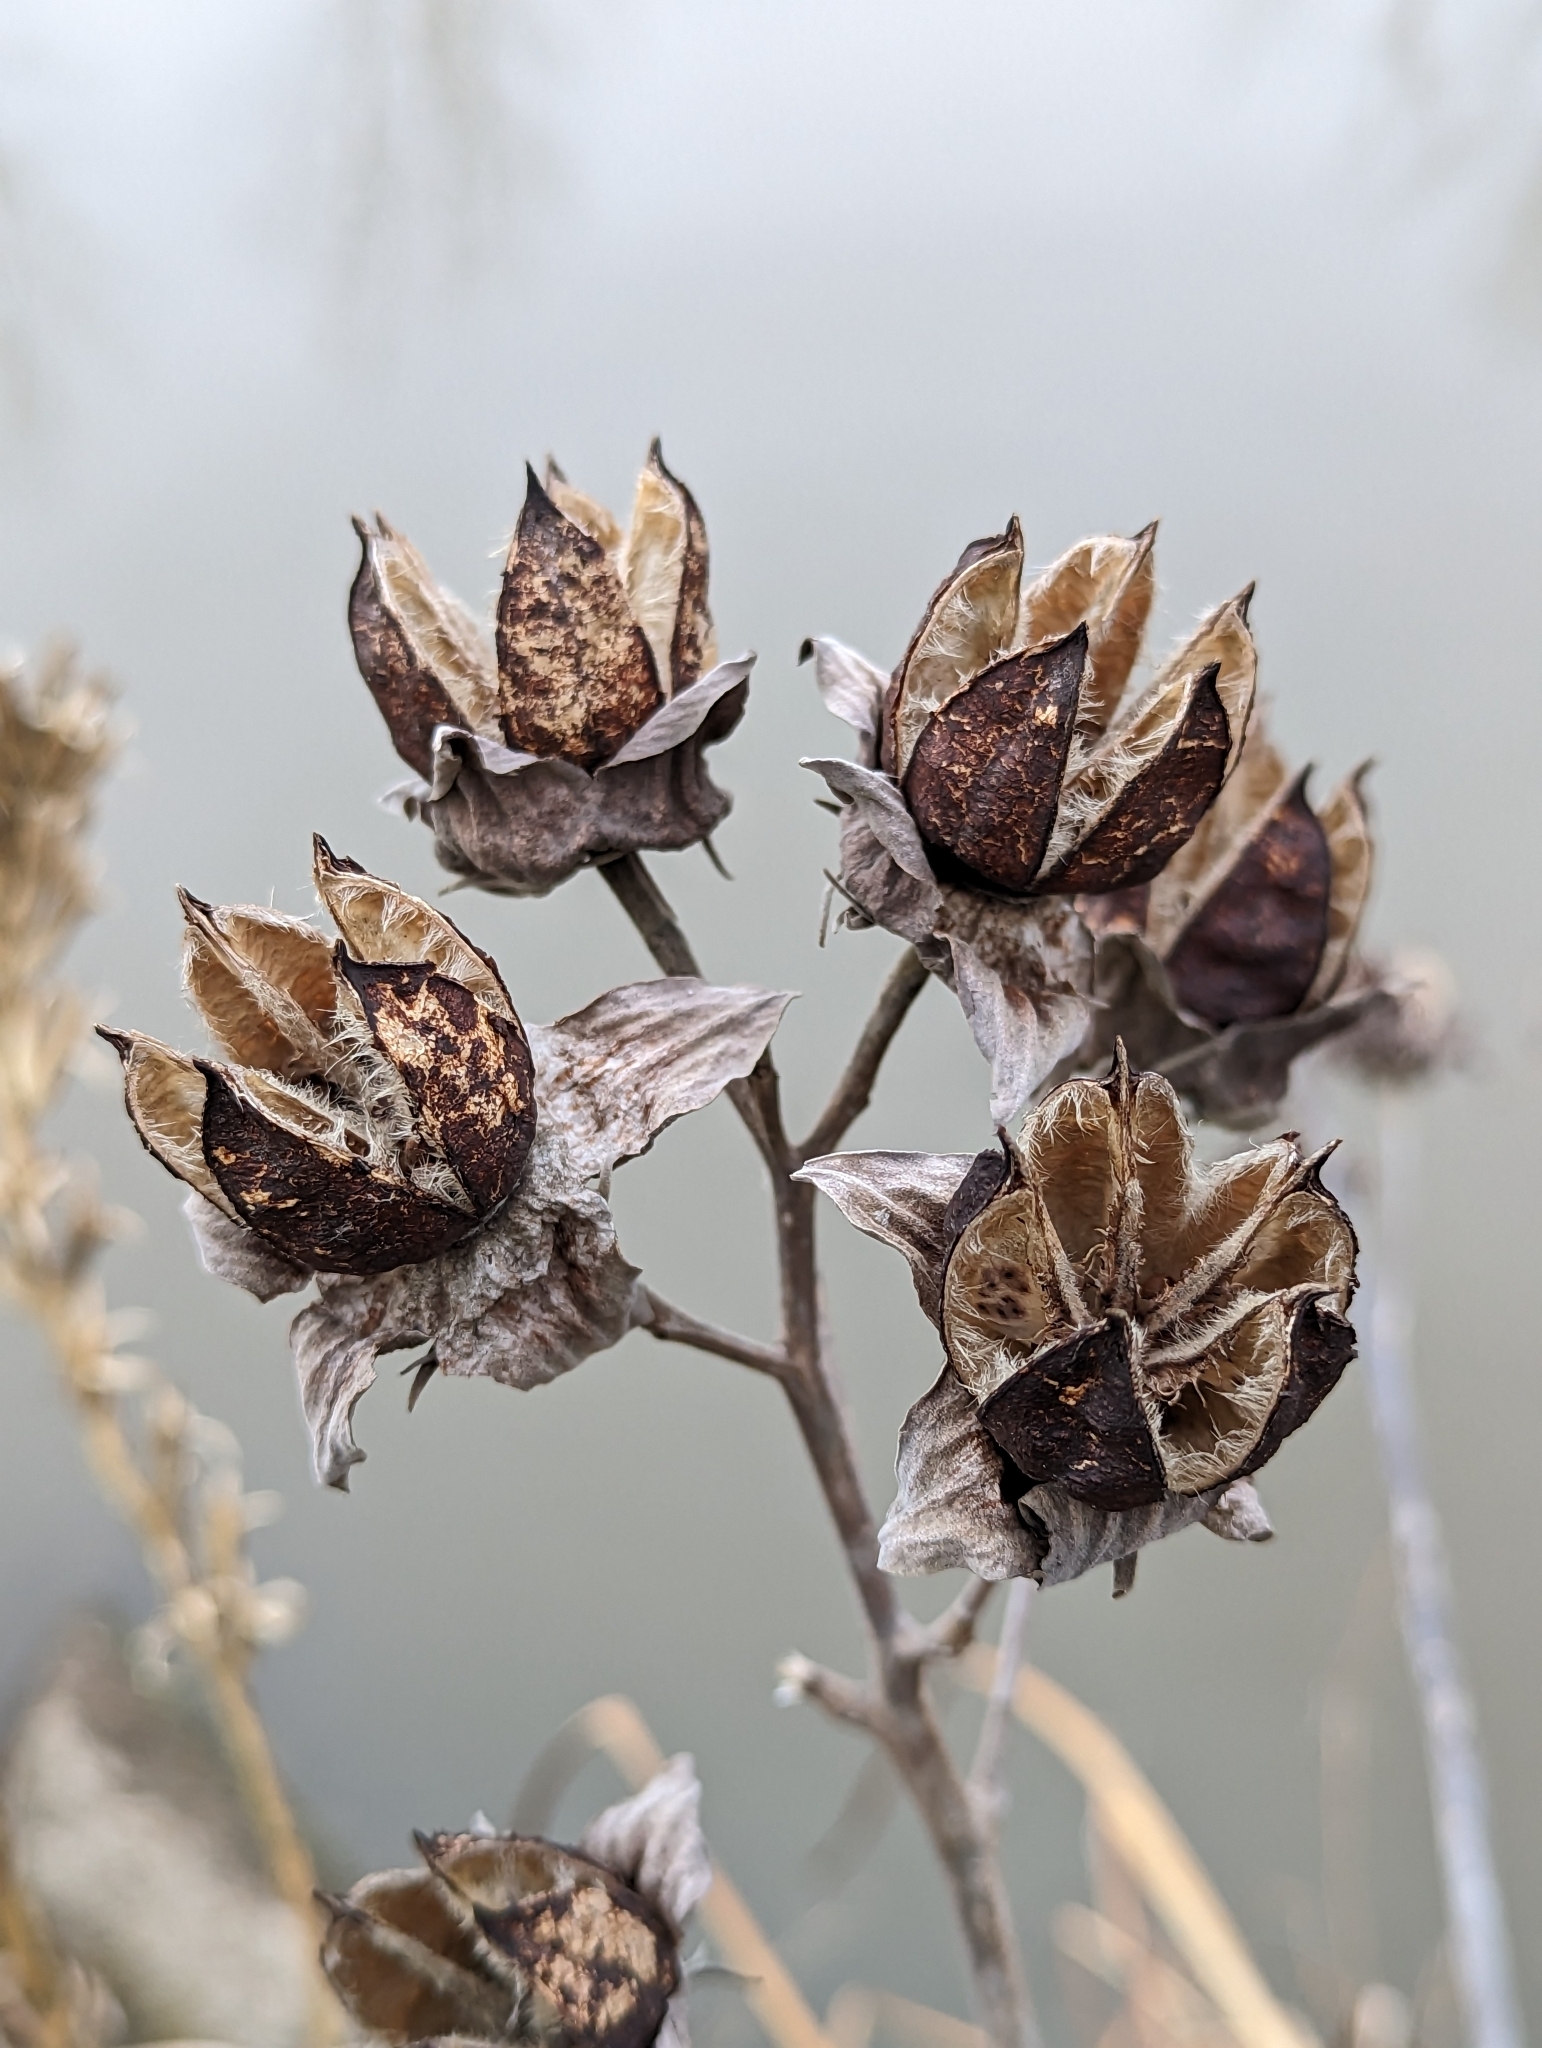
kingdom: Plantae
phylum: Tracheophyta
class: Magnoliopsida
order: Malvales
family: Malvaceae
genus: Hibiscus
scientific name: Hibiscus moscheutos
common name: Common rose-mallow
